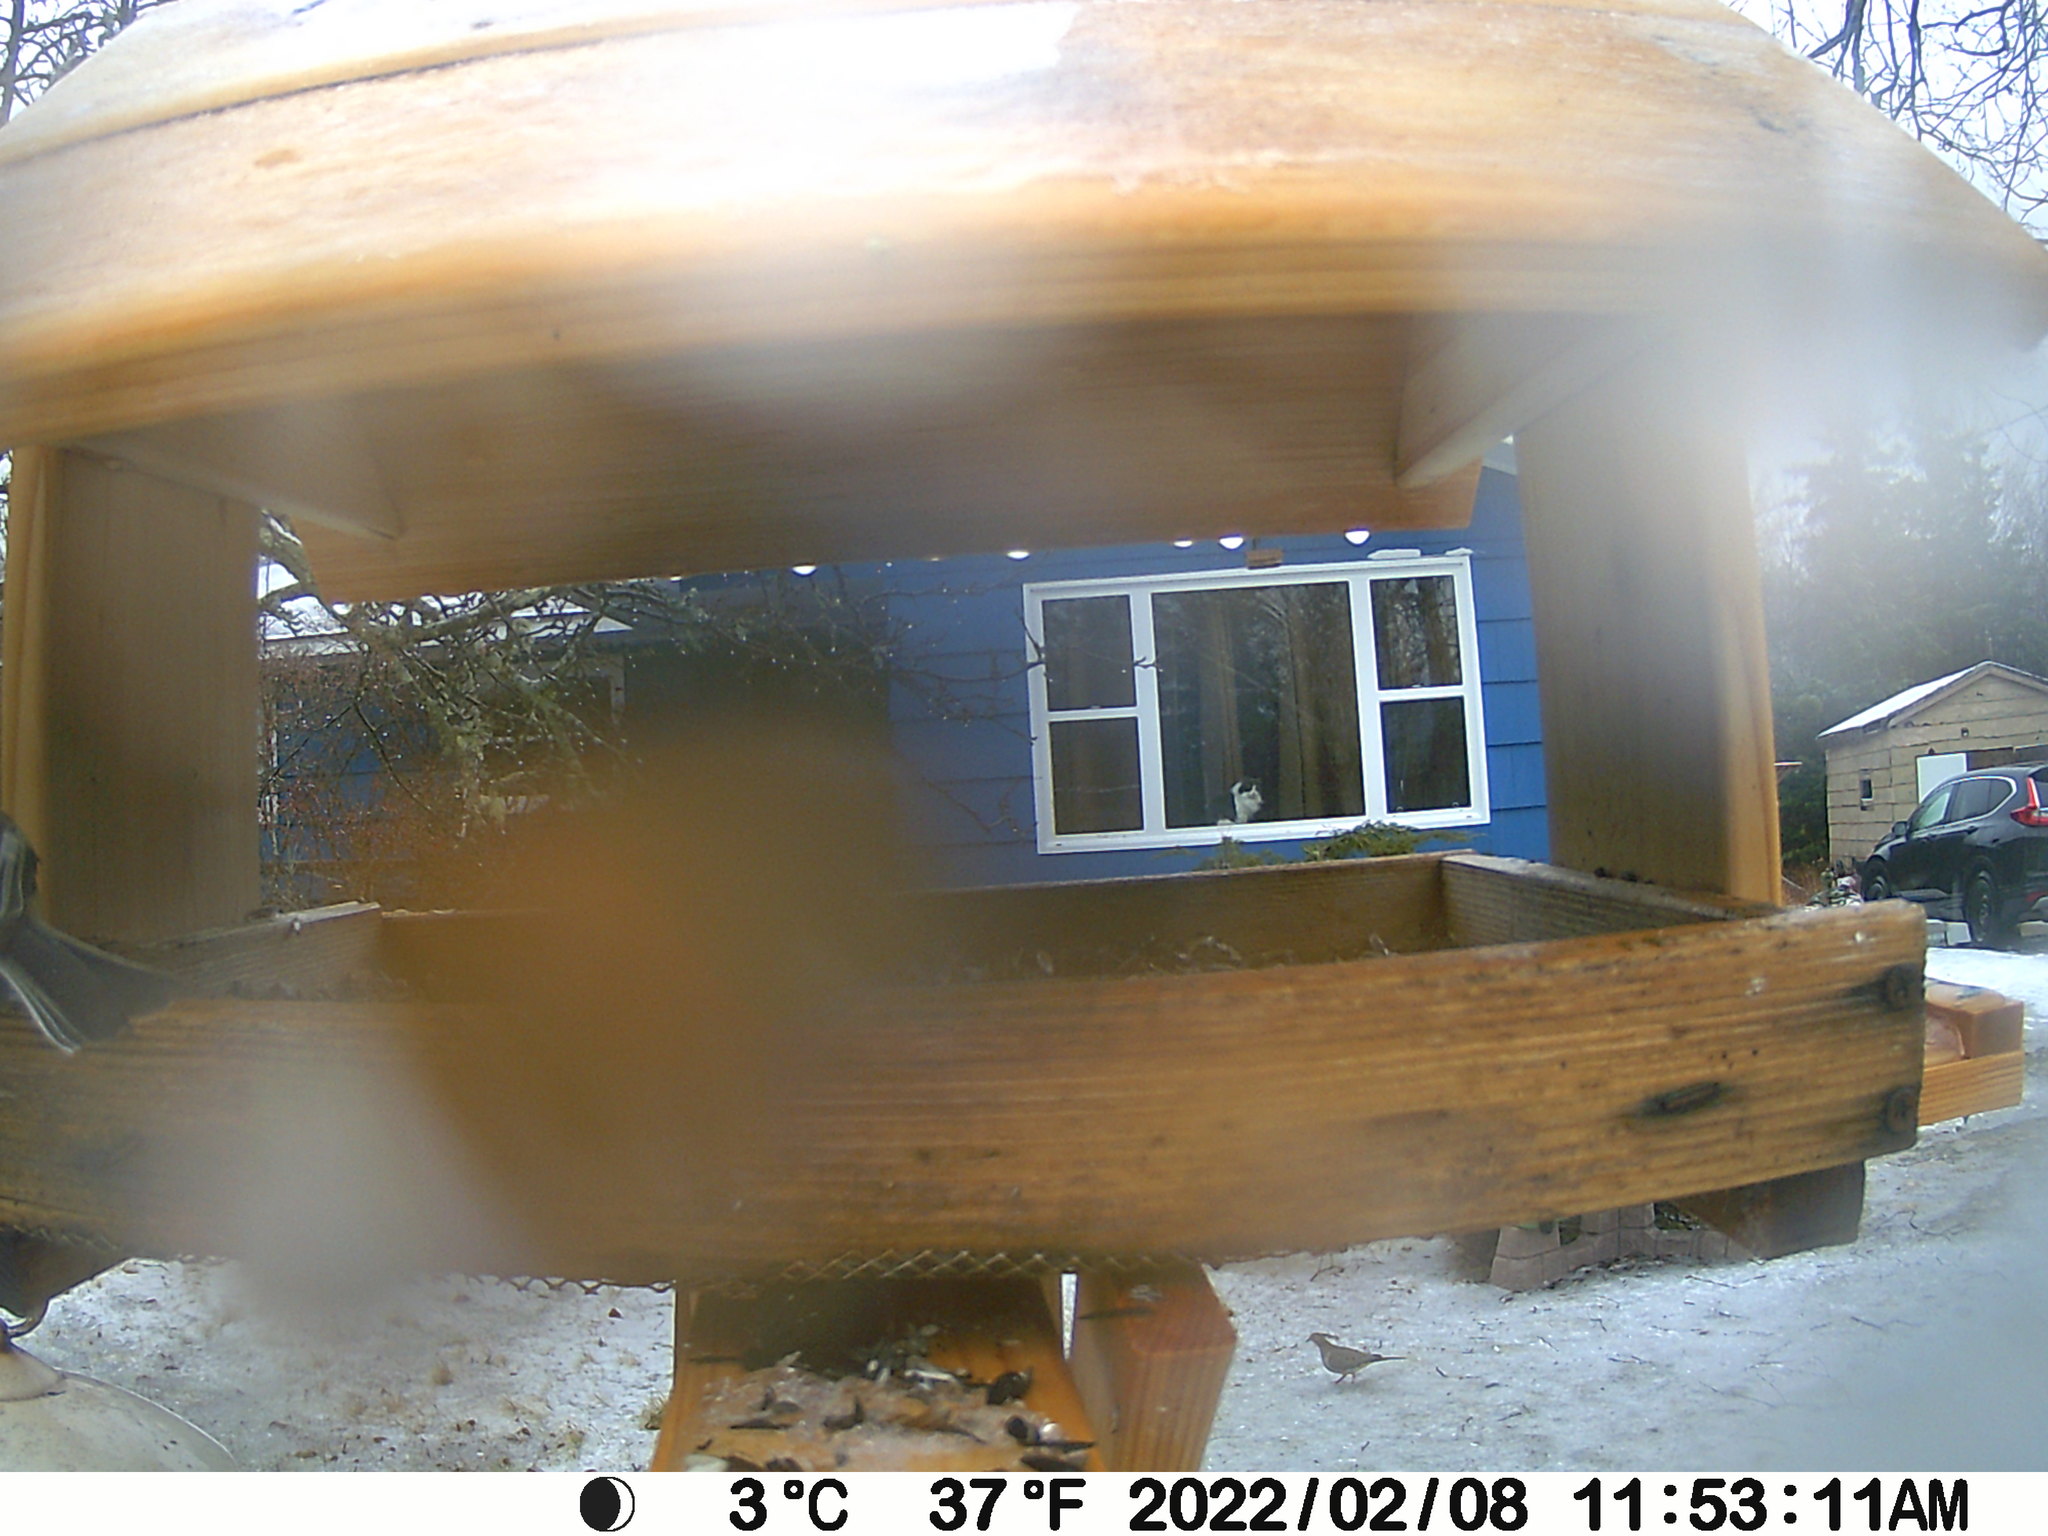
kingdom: Animalia
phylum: Chordata
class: Aves
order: Columbiformes
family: Columbidae
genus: Zenaida
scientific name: Zenaida macroura
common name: Mourning dove
